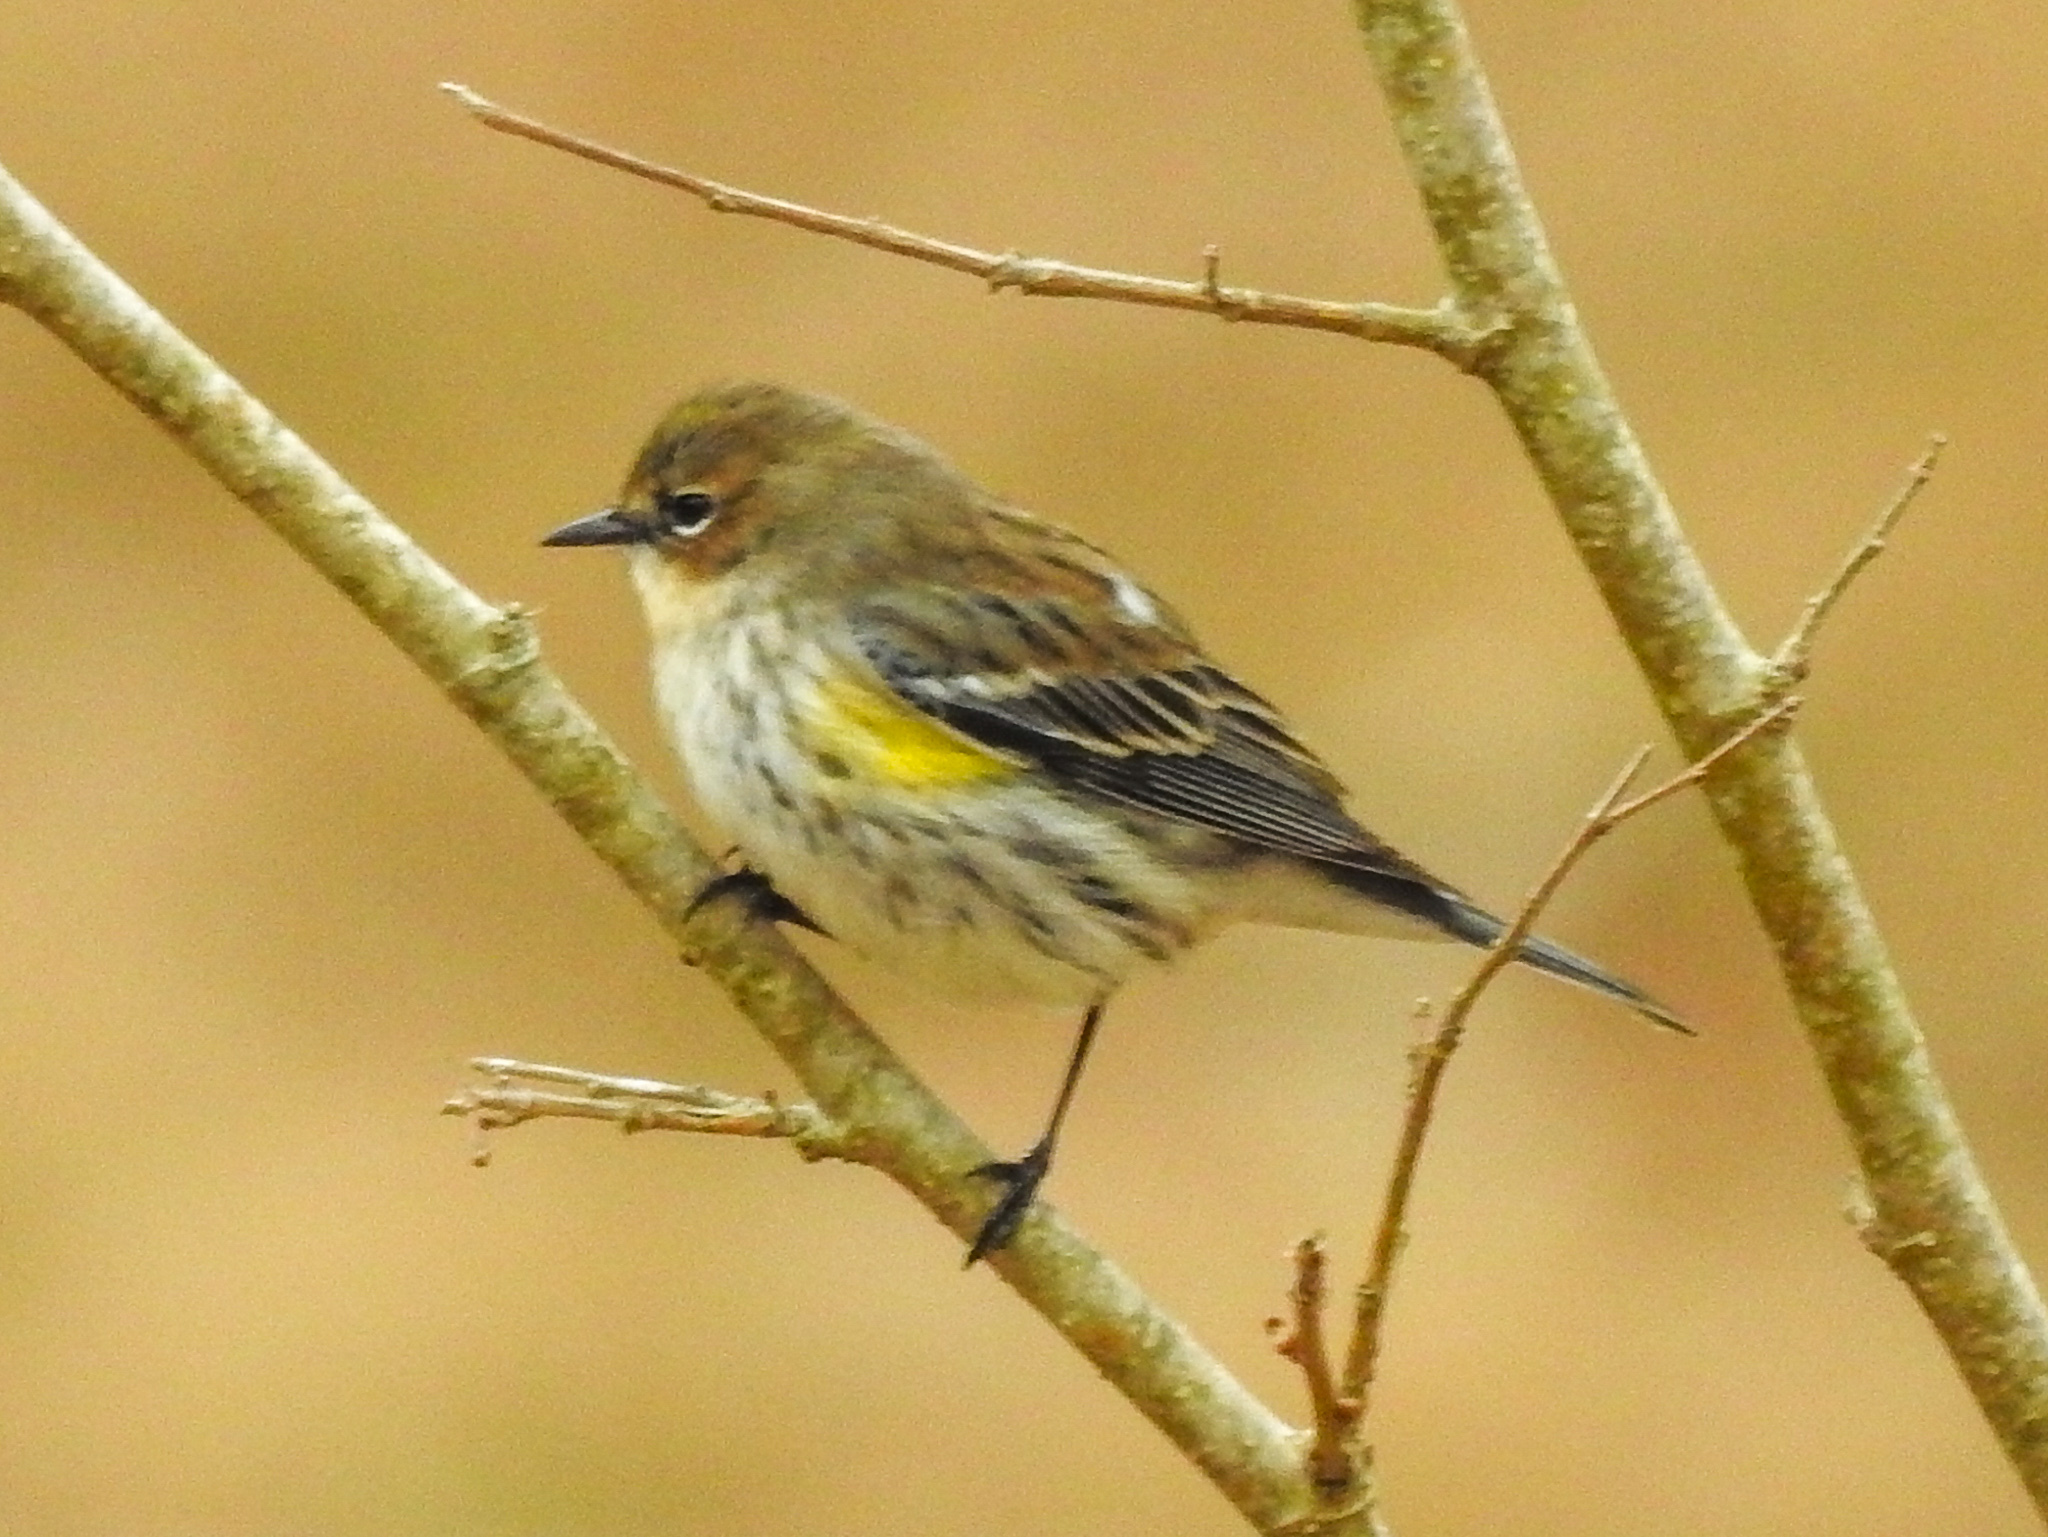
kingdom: Animalia
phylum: Chordata
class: Aves
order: Passeriformes
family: Parulidae
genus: Setophaga
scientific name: Setophaga coronata
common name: Myrtle warbler
